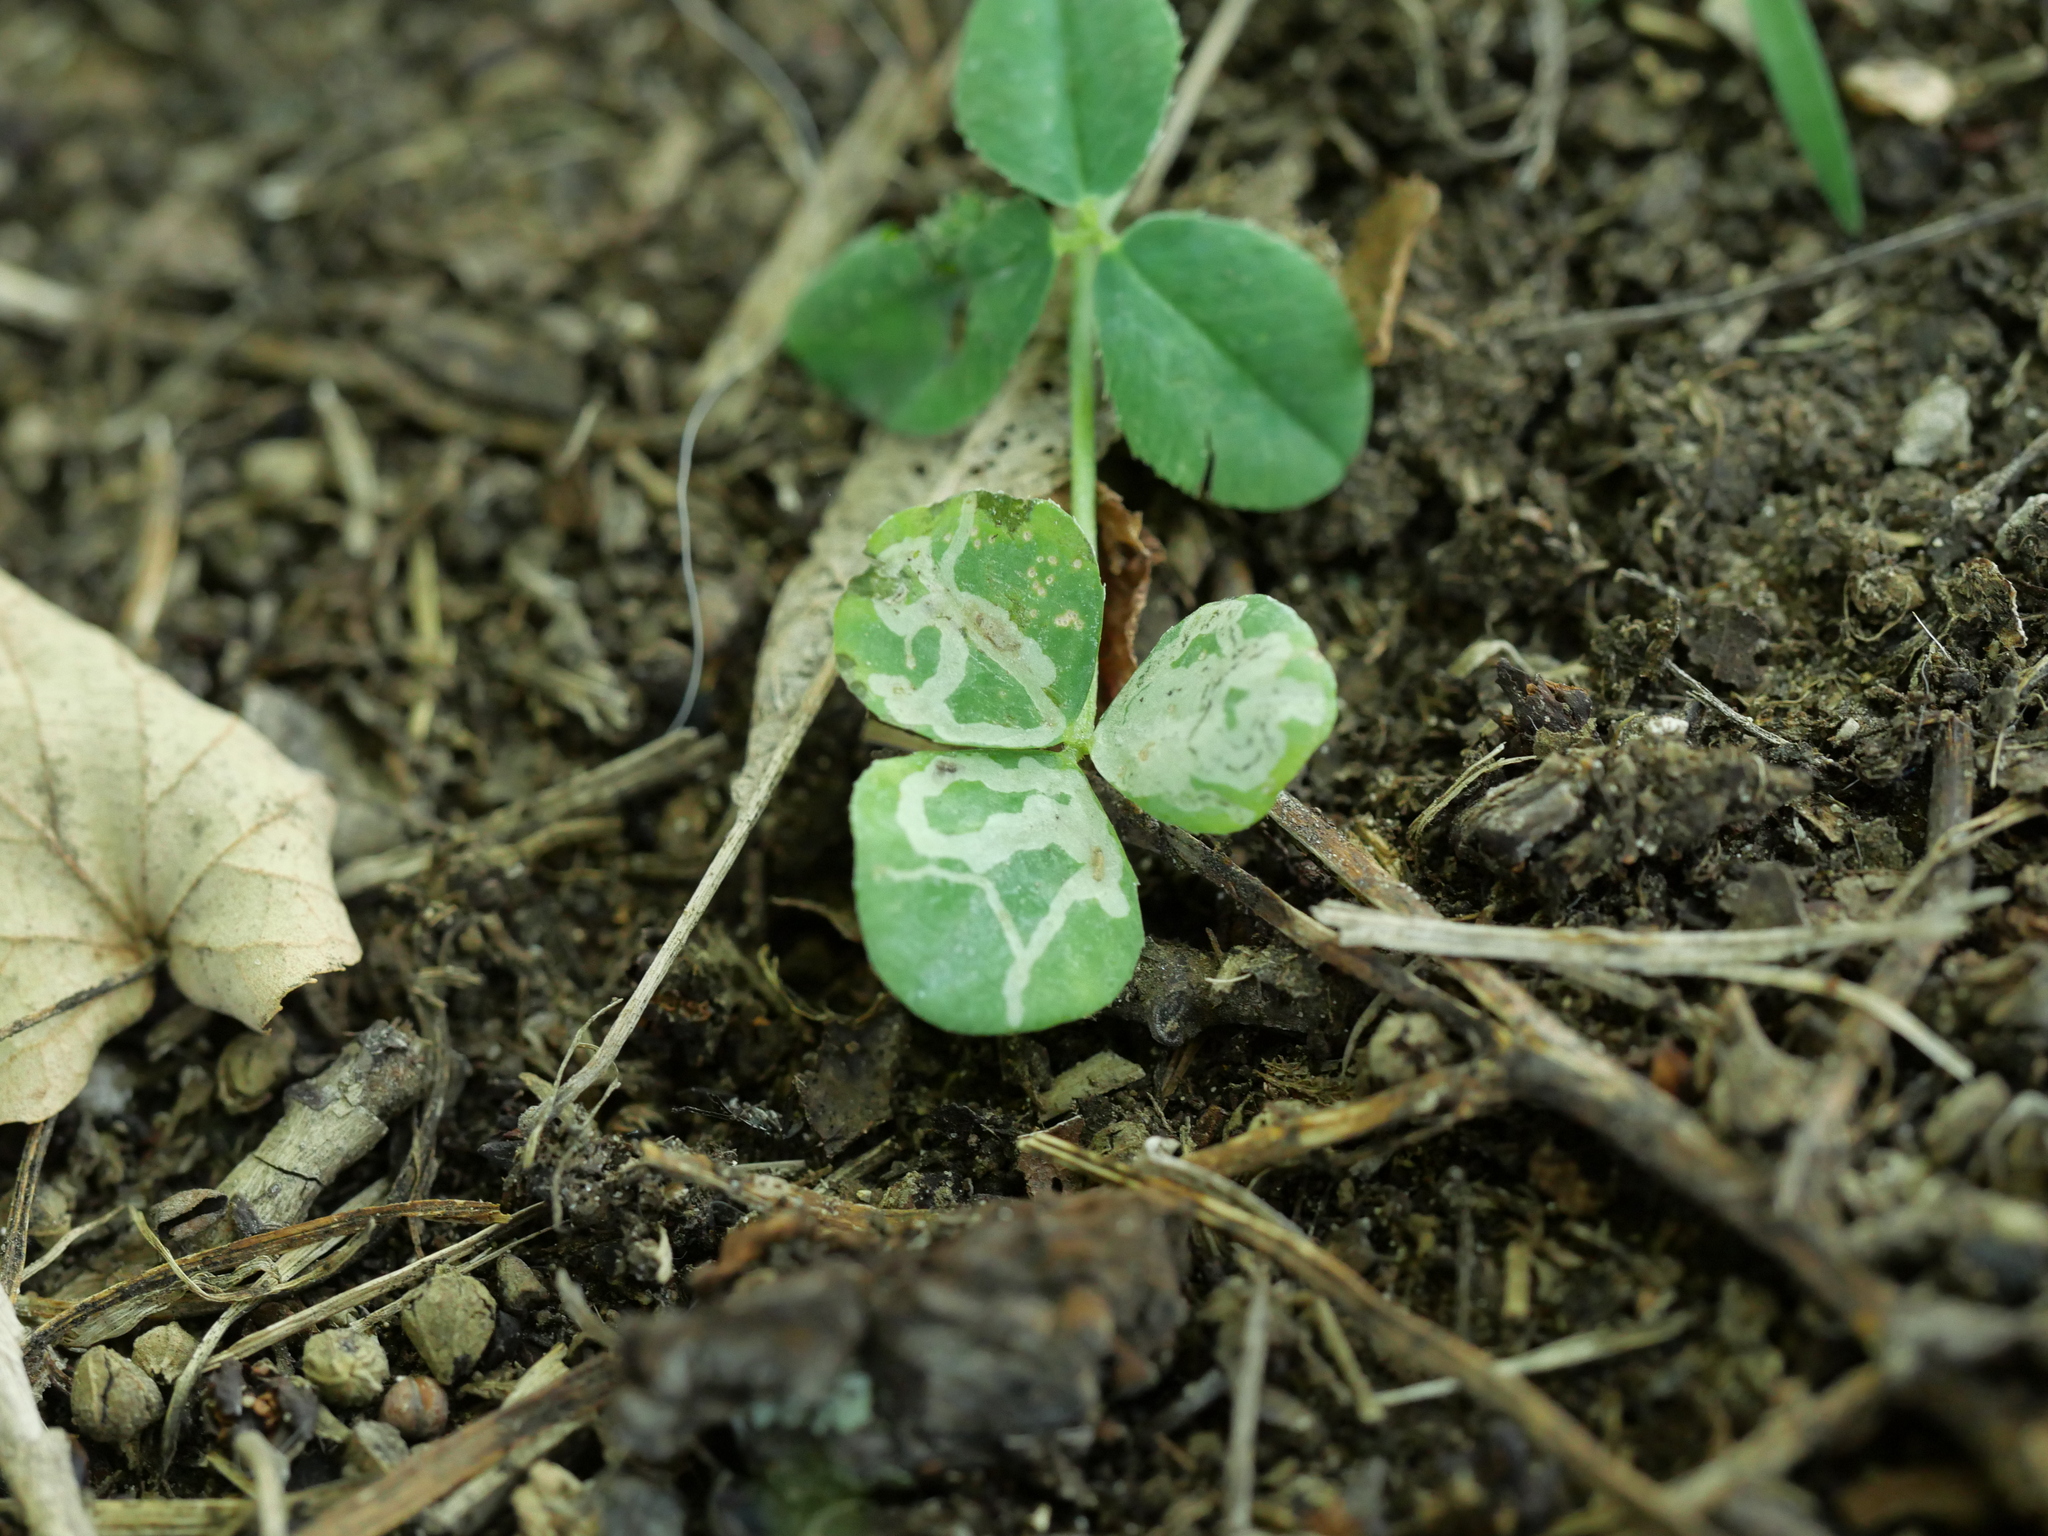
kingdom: Animalia
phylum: Arthropoda
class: Insecta
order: Diptera
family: Agromyzidae
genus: Liriomyza
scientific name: Liriomyza congesta
